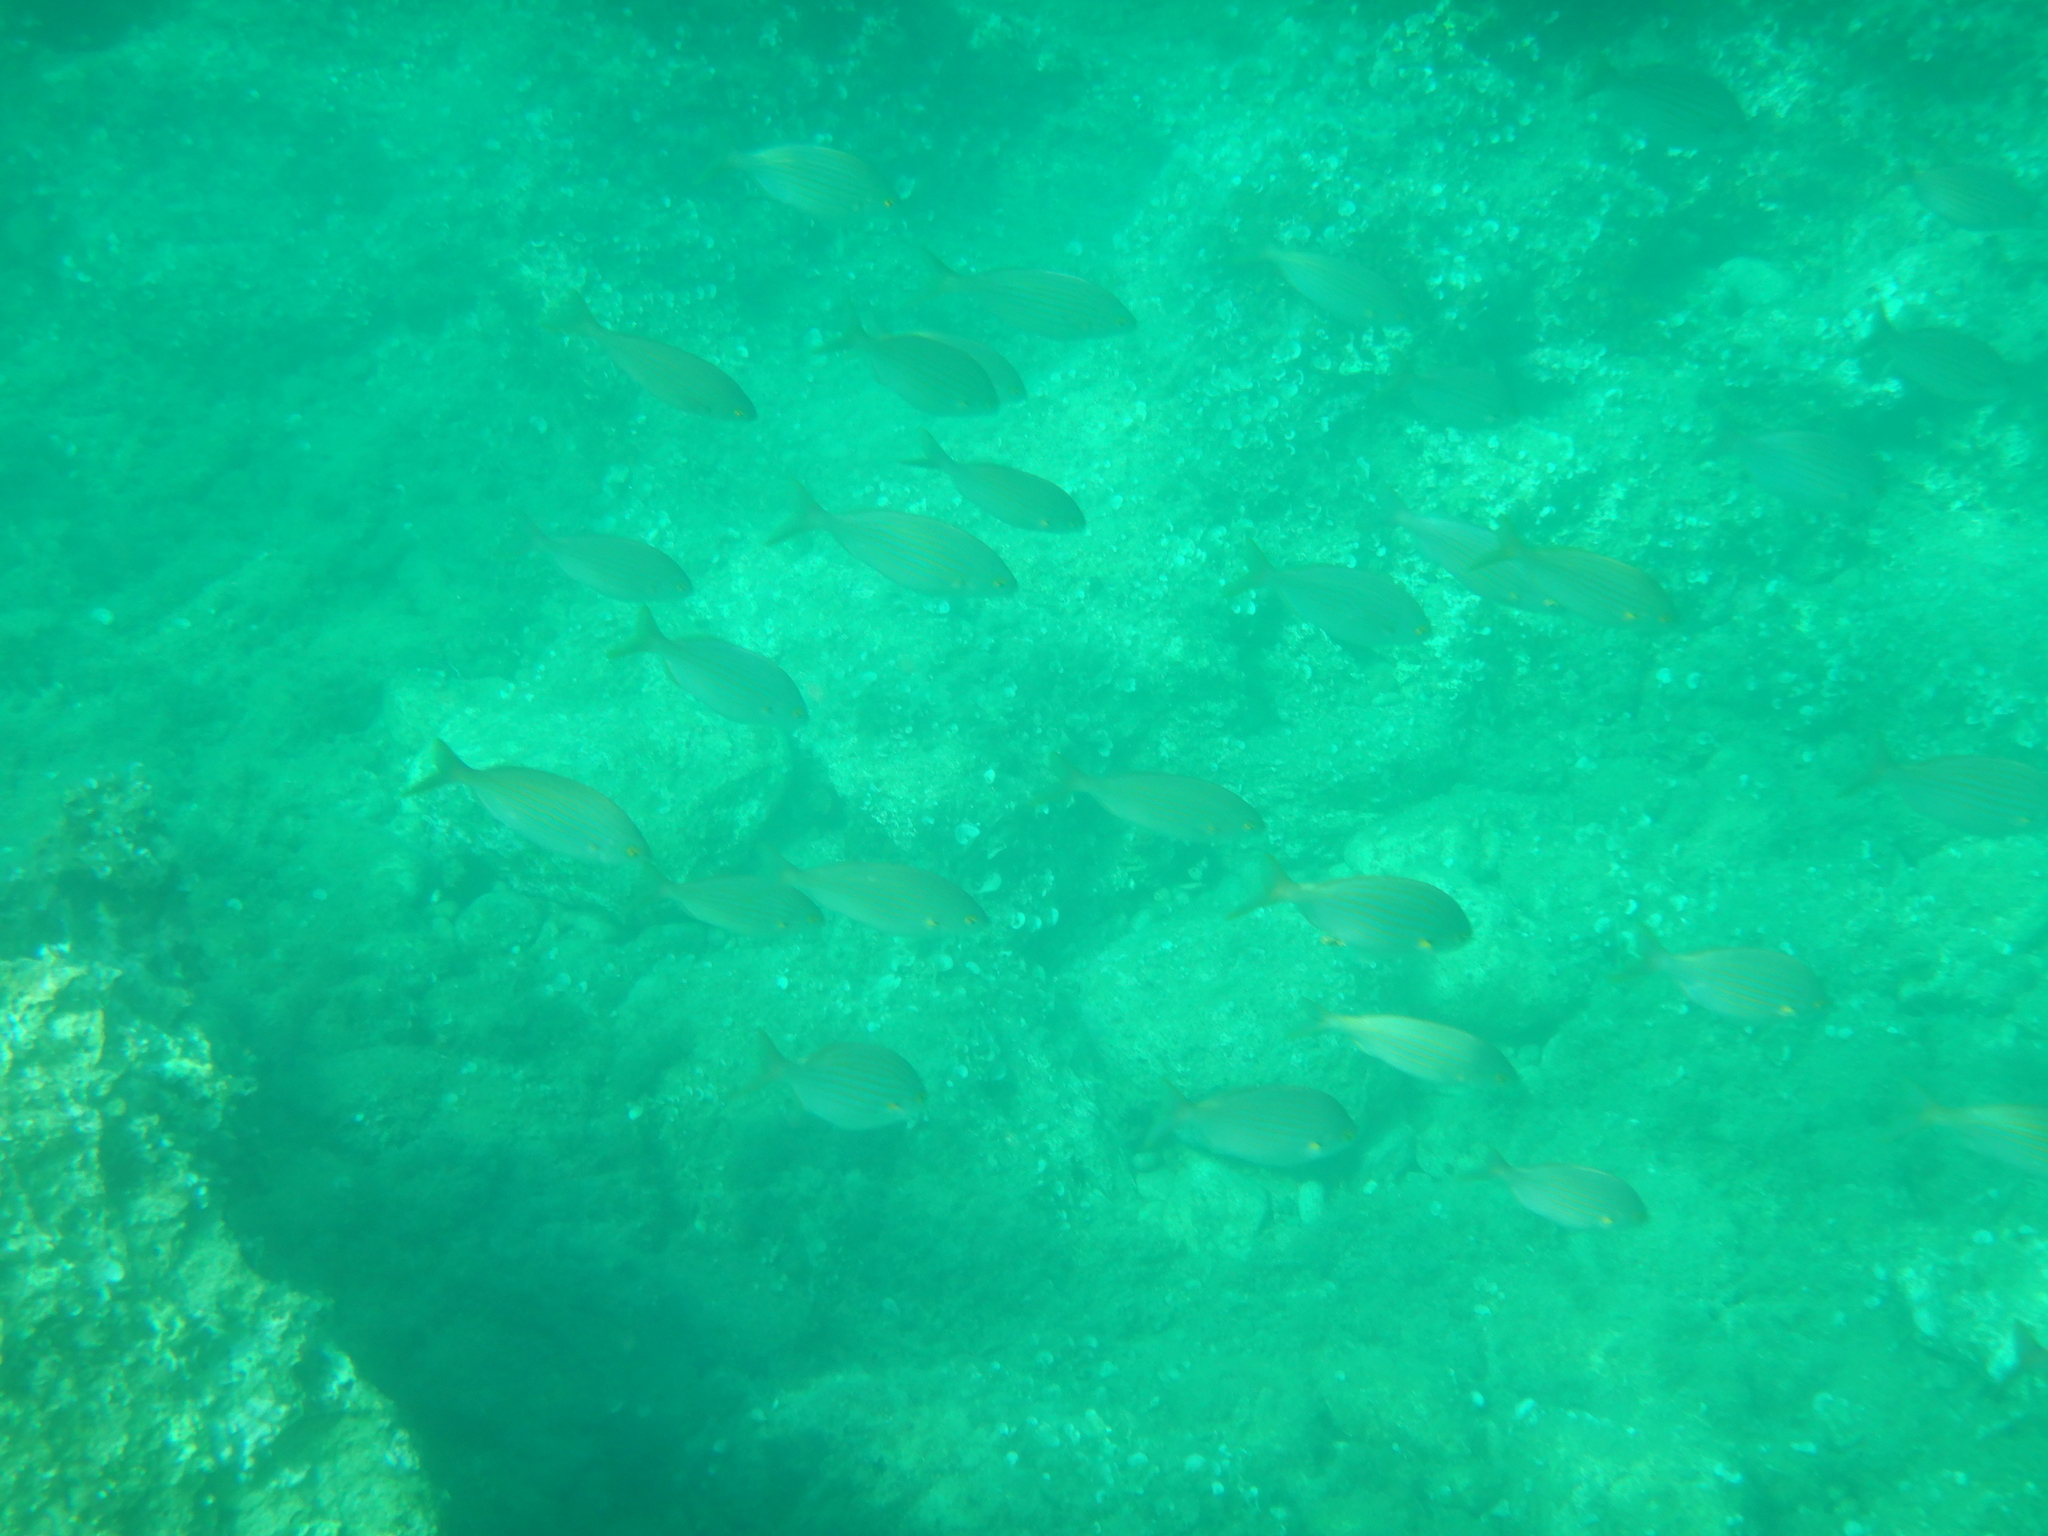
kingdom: Animalia
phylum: Chordata
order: Perciformes
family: Sparidae
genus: Sarpa
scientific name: Sarpa salpa
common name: Salema
